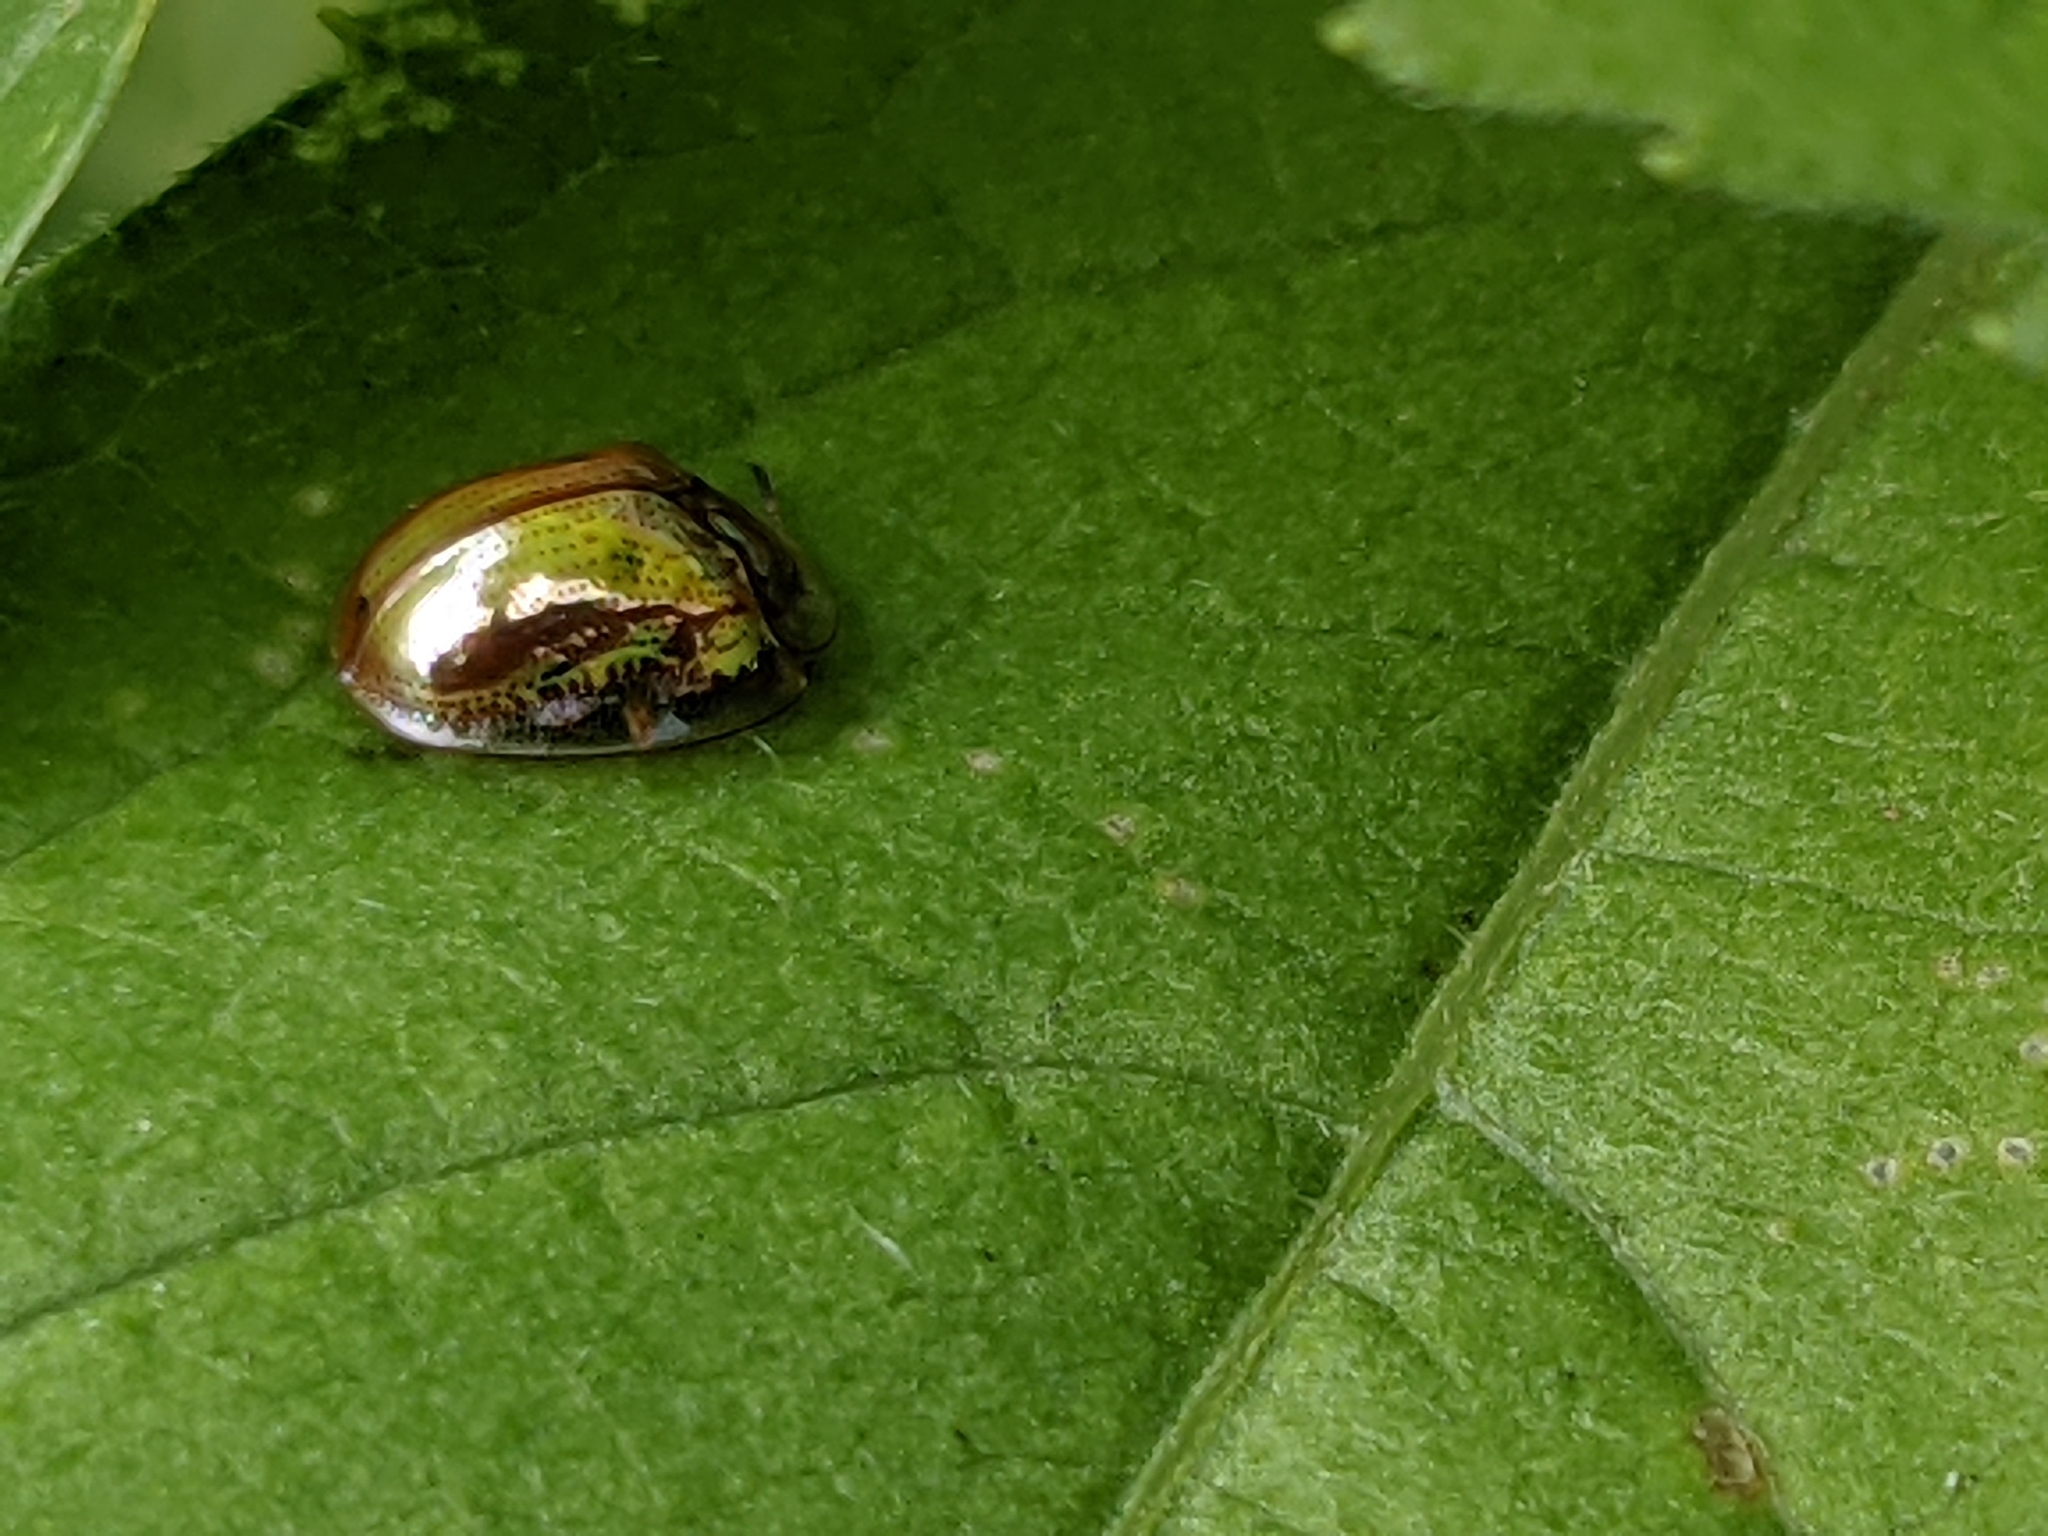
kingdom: Animalia
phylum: Arthropoda
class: Insecta
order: Coleoptera
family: Chrysomelidae
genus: Charidotella
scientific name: Charidotella sexpunctata
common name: Golden tortoise beetle
